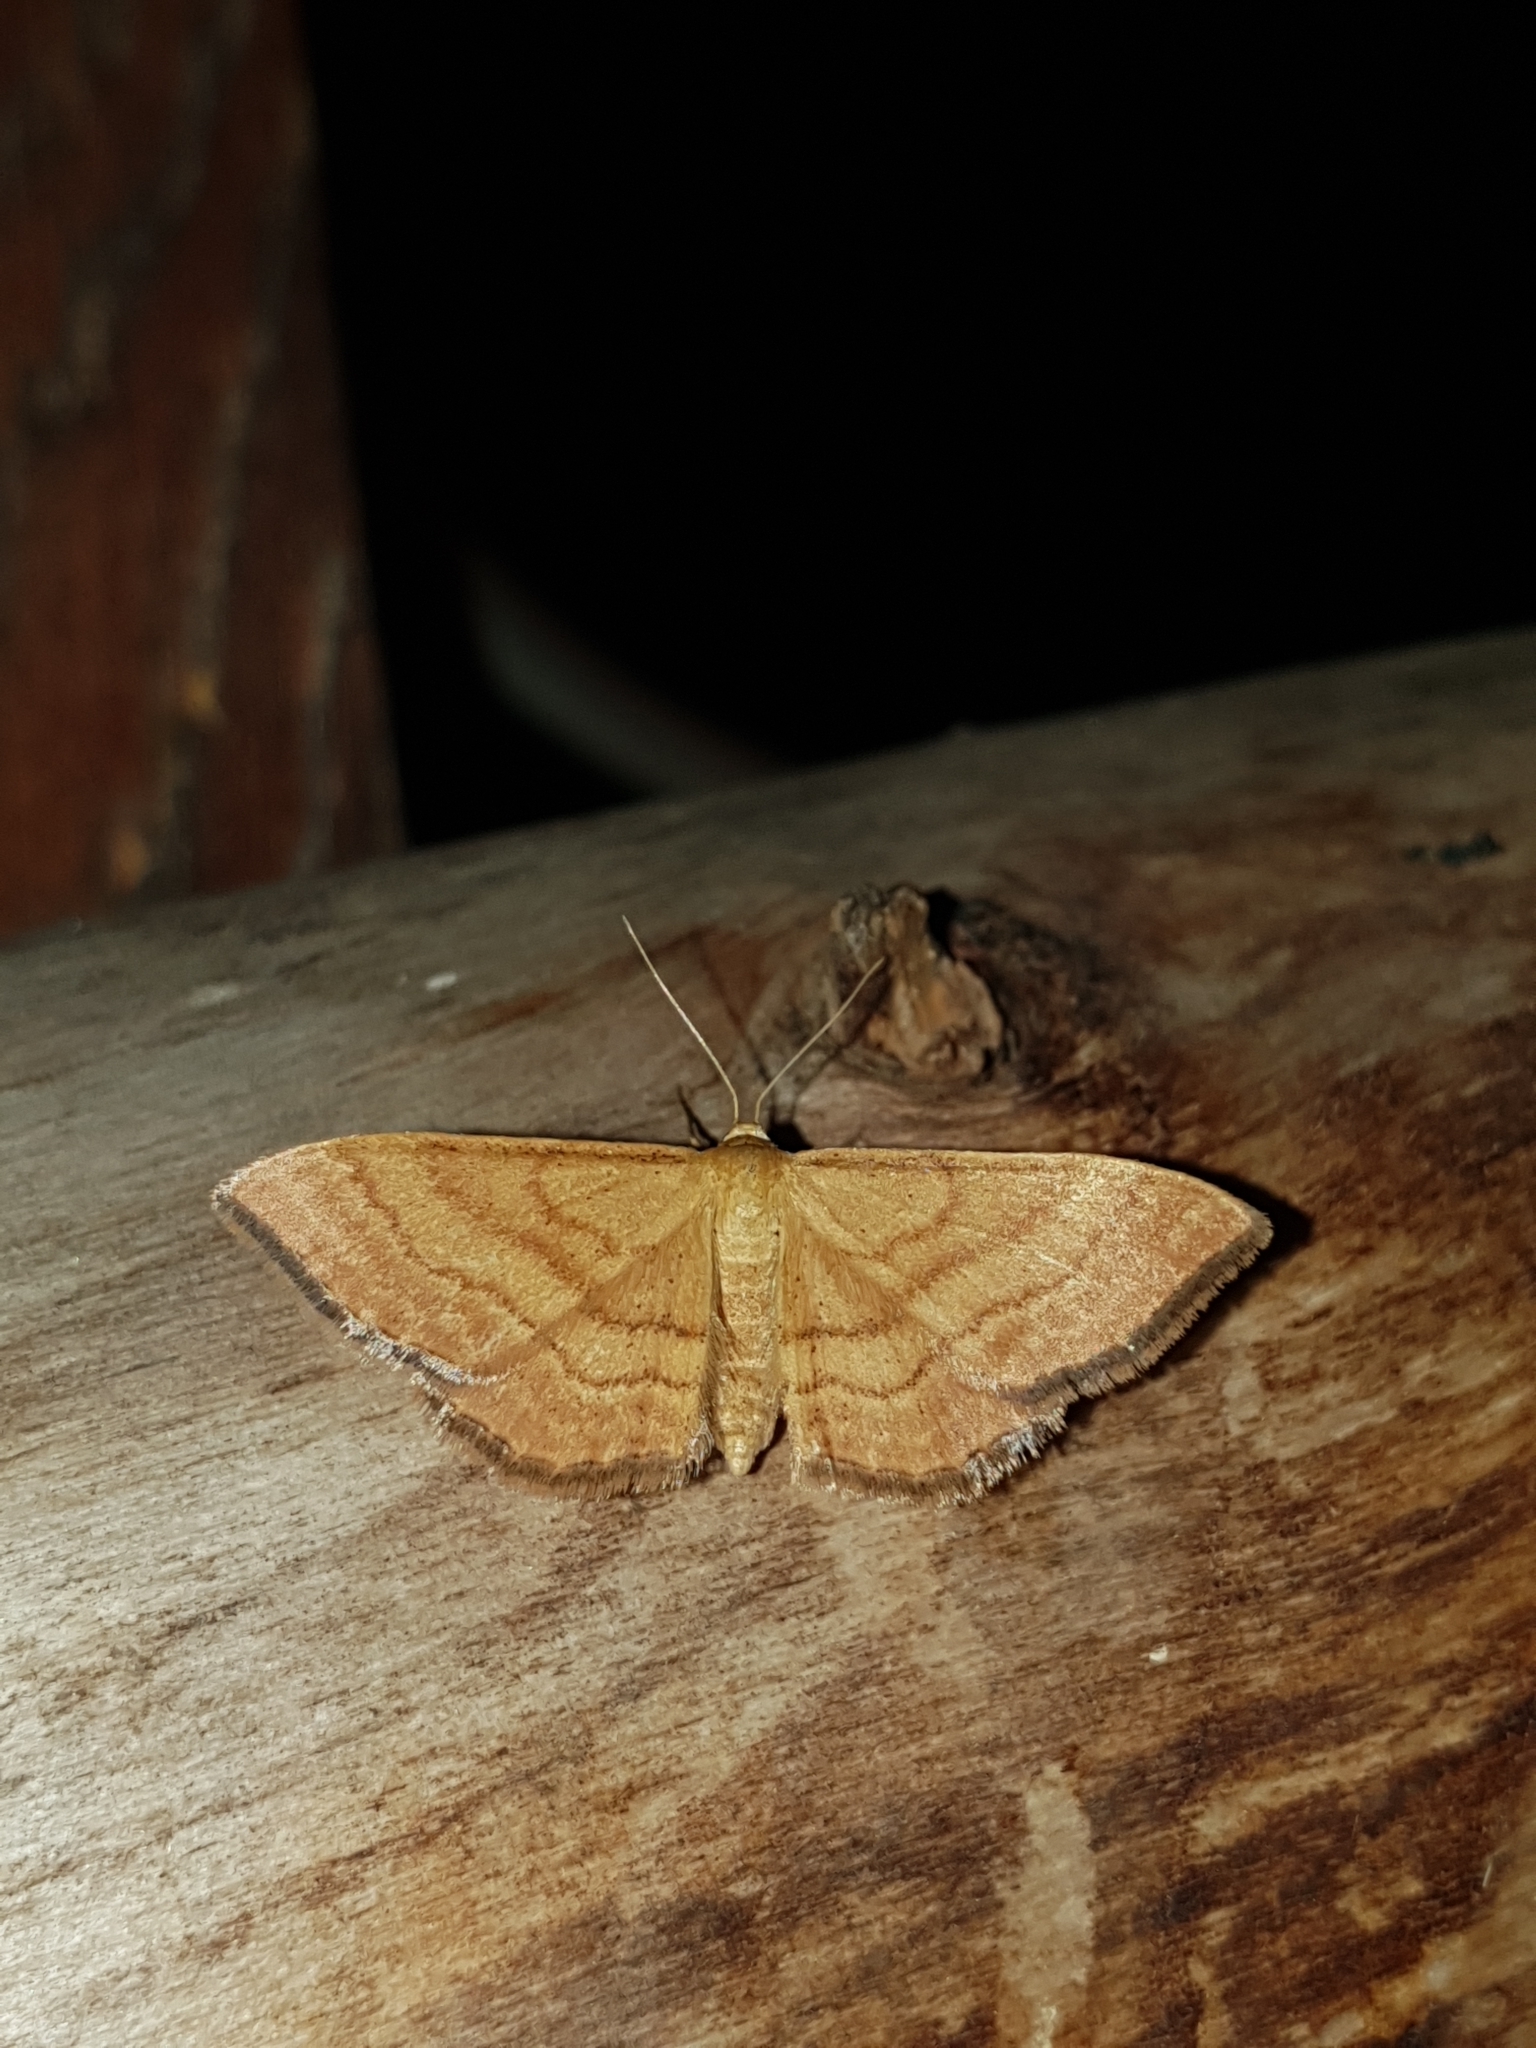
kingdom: Animalia
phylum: Arthropoda
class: Insecta
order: Lepidoptera
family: Geometridae
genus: Idaea
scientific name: Idaea ochrata
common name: Bright wave
